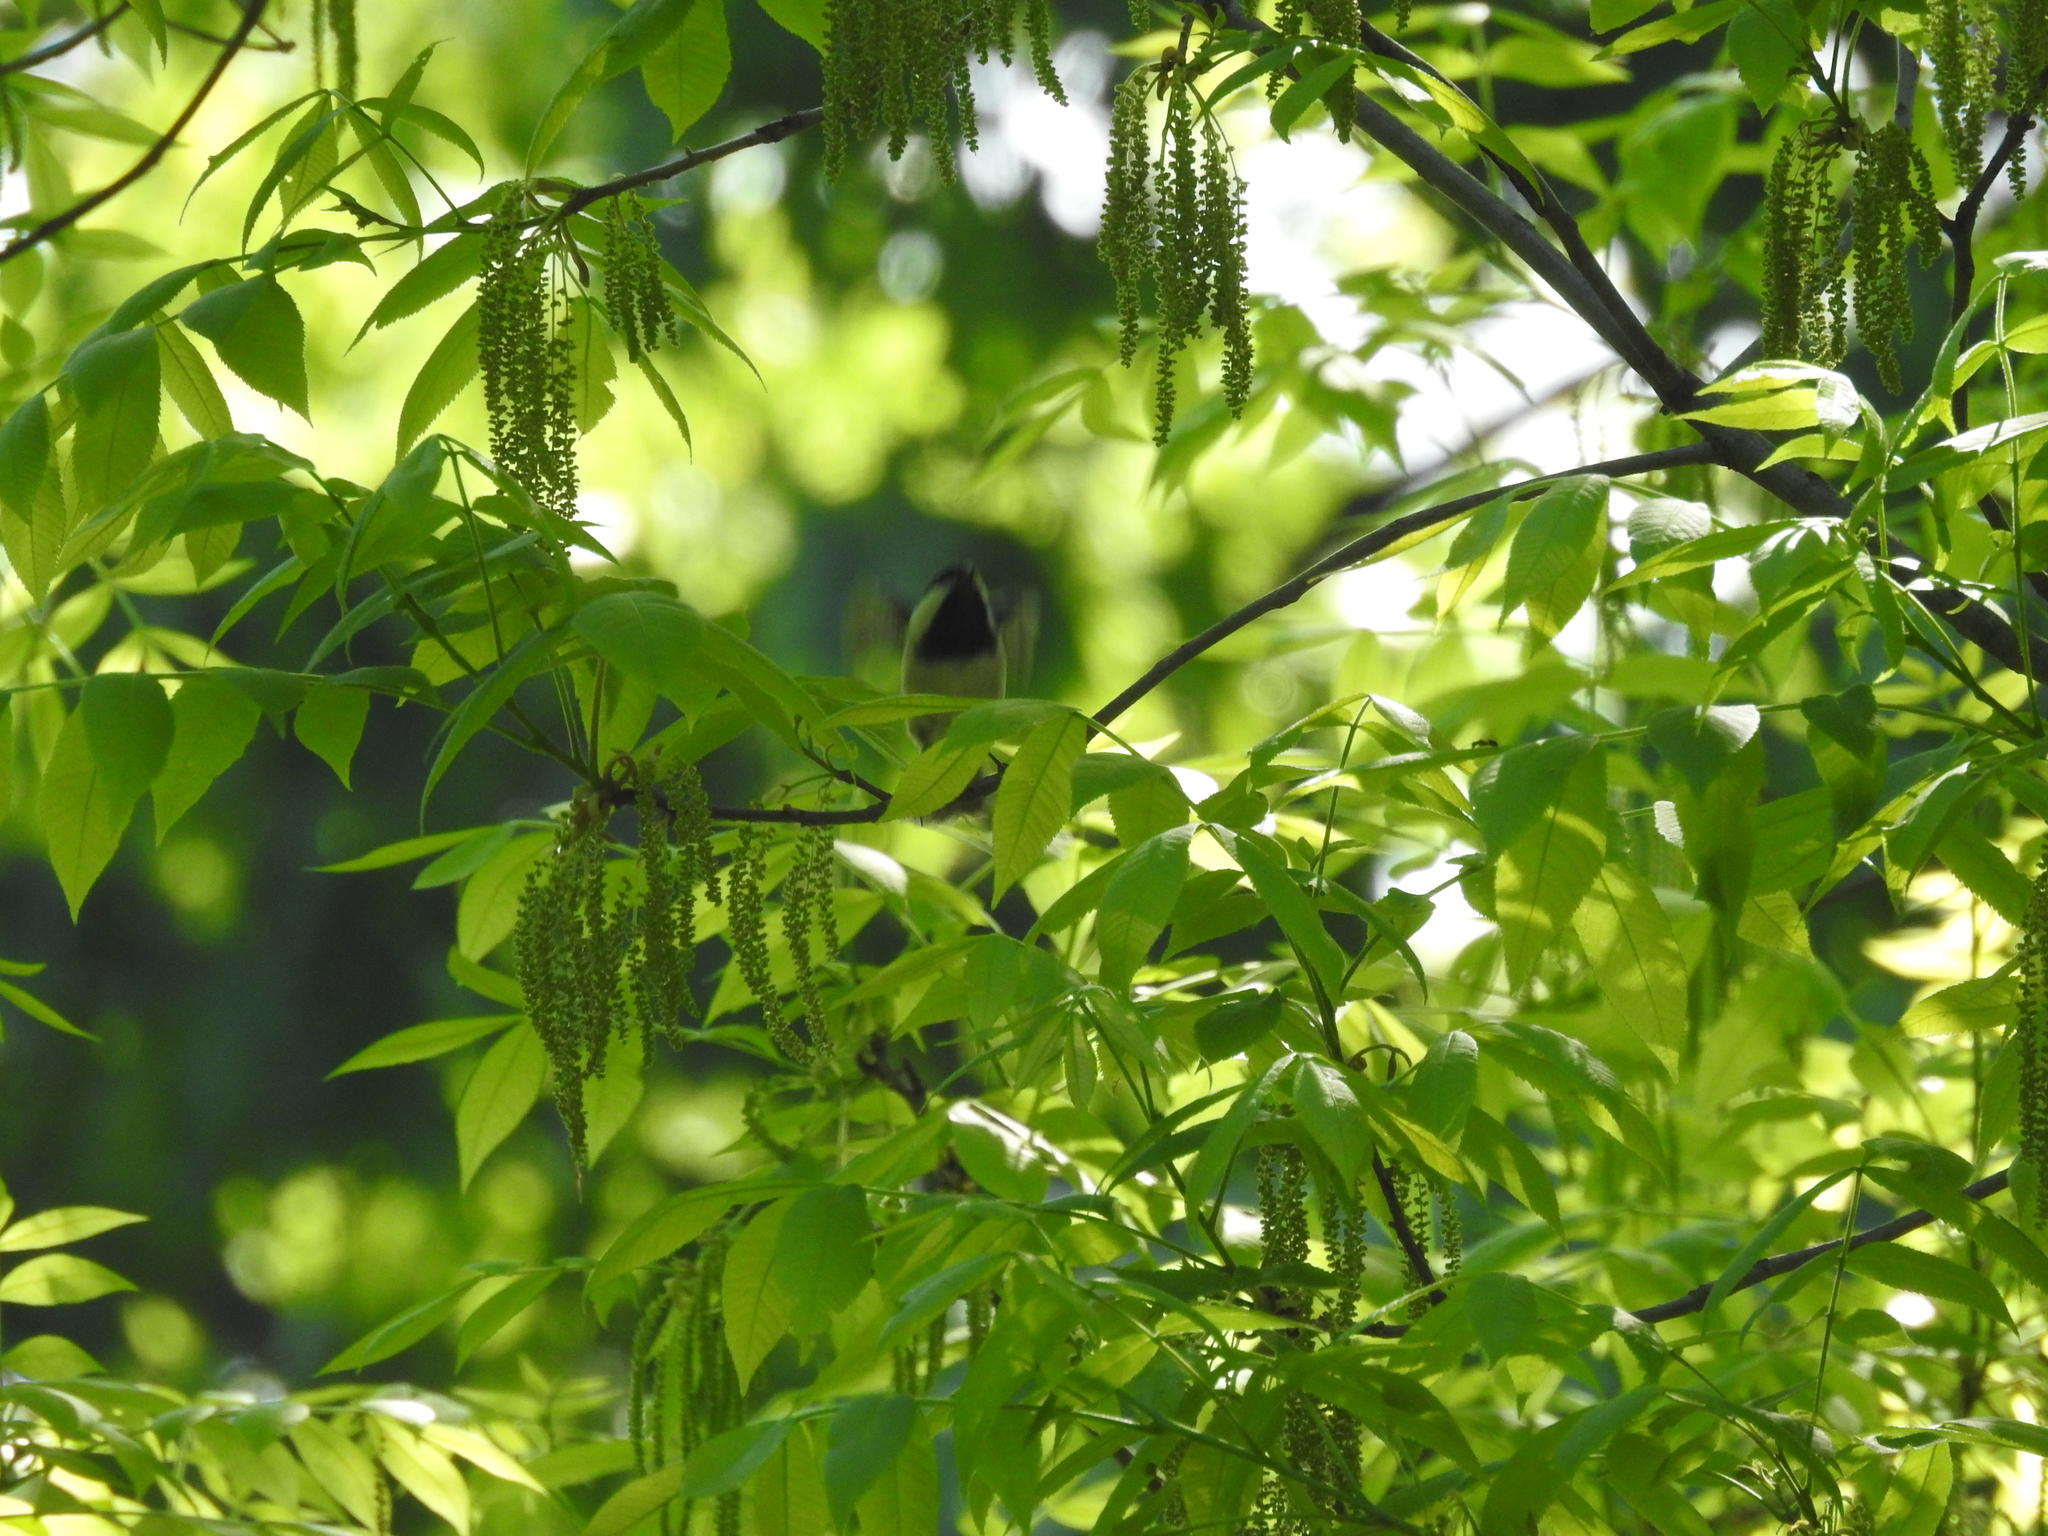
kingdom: Animalia
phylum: Chordata
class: Aves
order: Passeriformes
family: Paridae
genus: Poecile
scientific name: Poecile carolinensis
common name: Carolina chickadee
